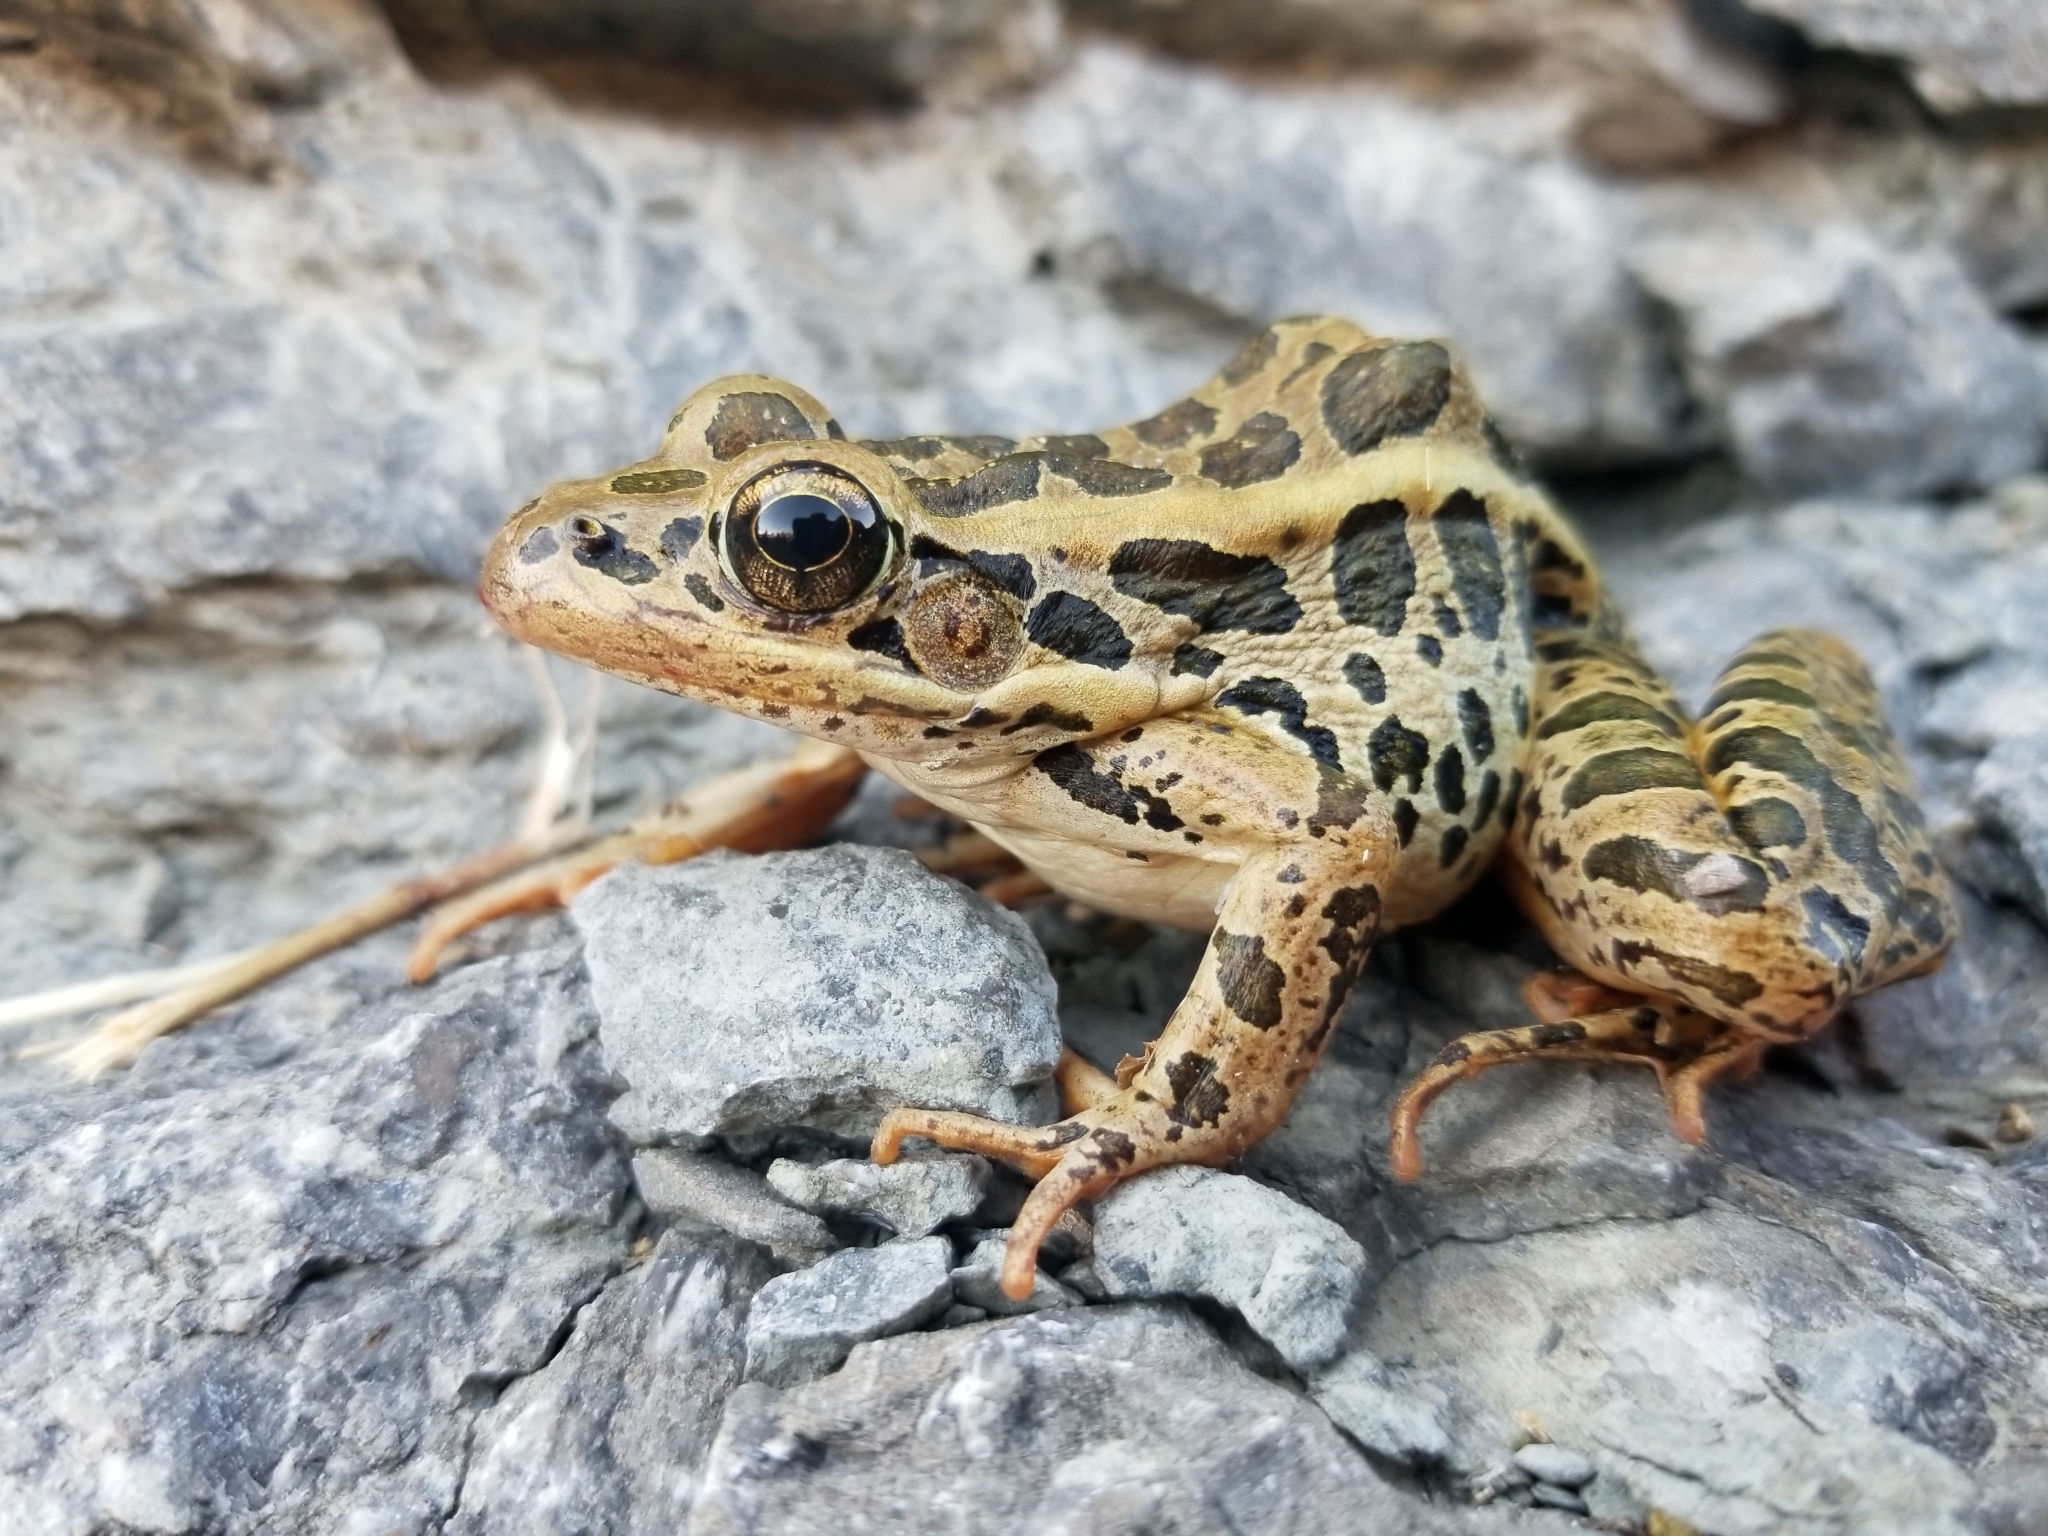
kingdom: Animalia
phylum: Chordata
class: Amphibia
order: Anura
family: Ranidae
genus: Lithobates
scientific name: Lithobates palustris
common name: Pickerel frog
